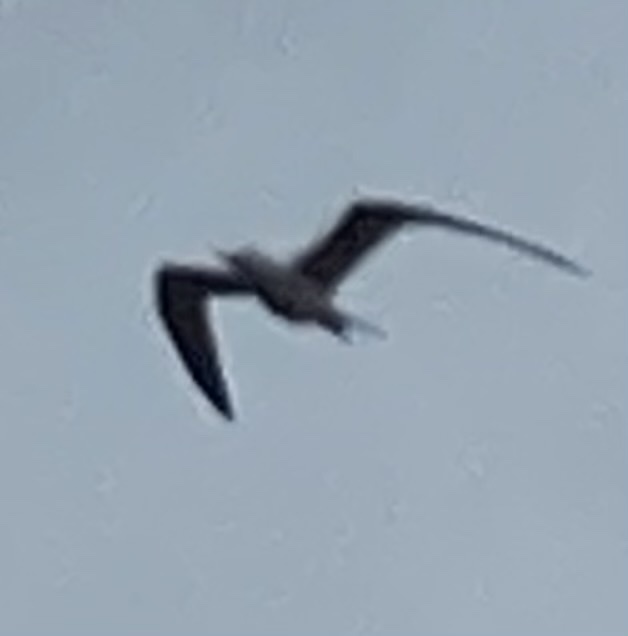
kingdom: Animalia
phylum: Chordata
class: Aves
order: Suliformes
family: Fregatidae
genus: Fregata
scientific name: Fregata magnificens
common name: Magnificent frigatebird
